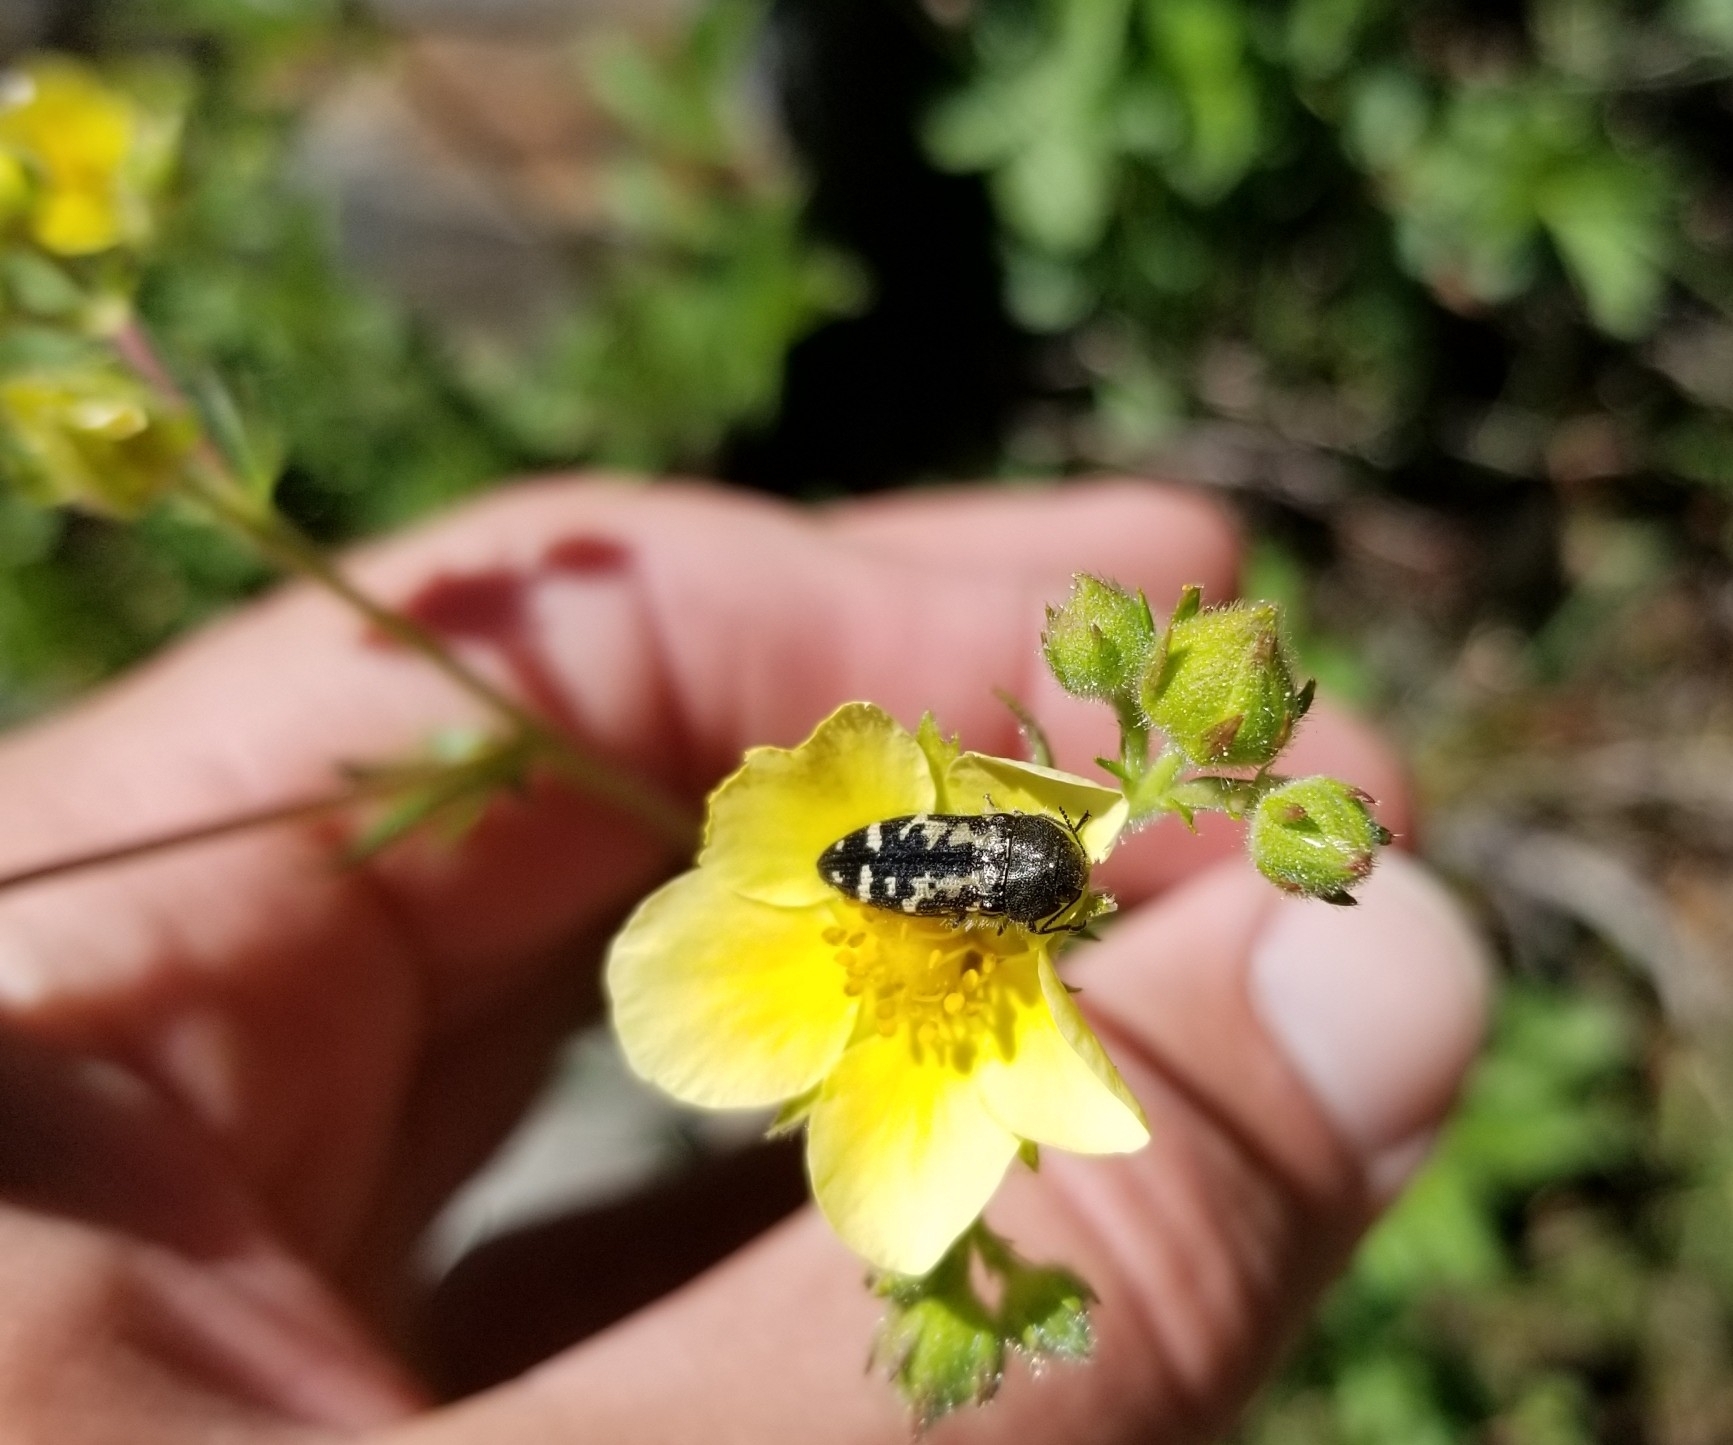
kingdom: Animalia
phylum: Arthropoda
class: Insecta
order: Coleoptera
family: Buprestidae
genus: Acmaeodera
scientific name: Acmaeodera connexa
